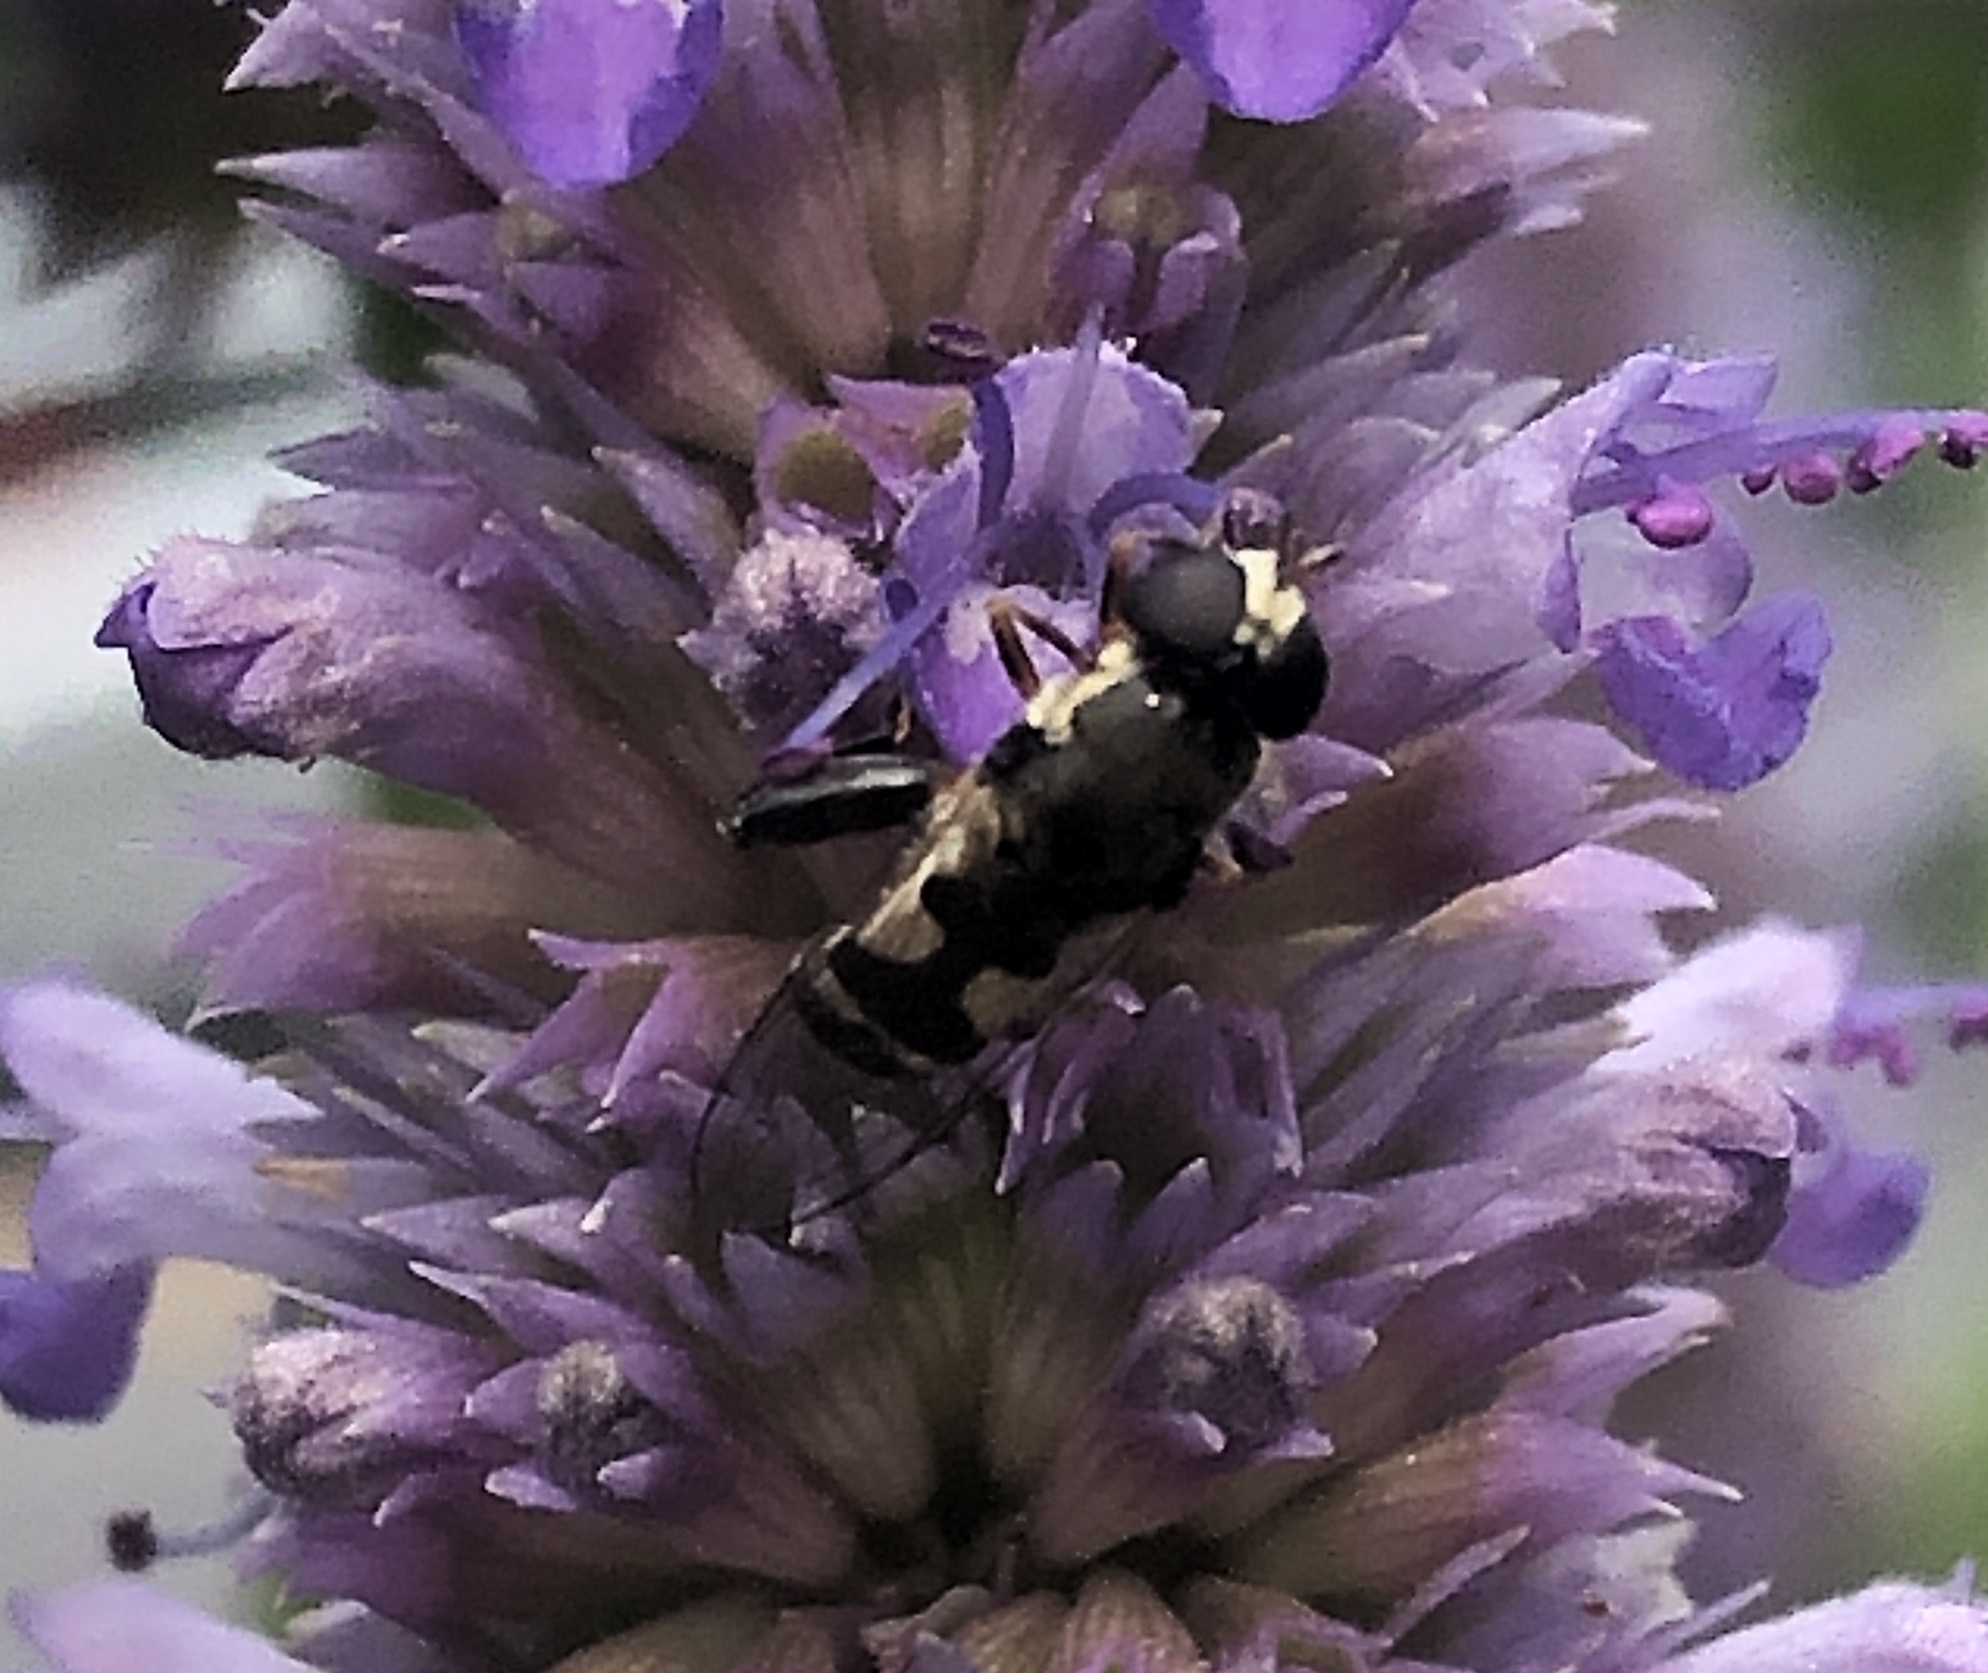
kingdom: Animalia
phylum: Arthropoda
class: Insecta
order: Diptera
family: Syrphidae
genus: Syritta
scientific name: Syritta pipiens
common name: Hover fly
